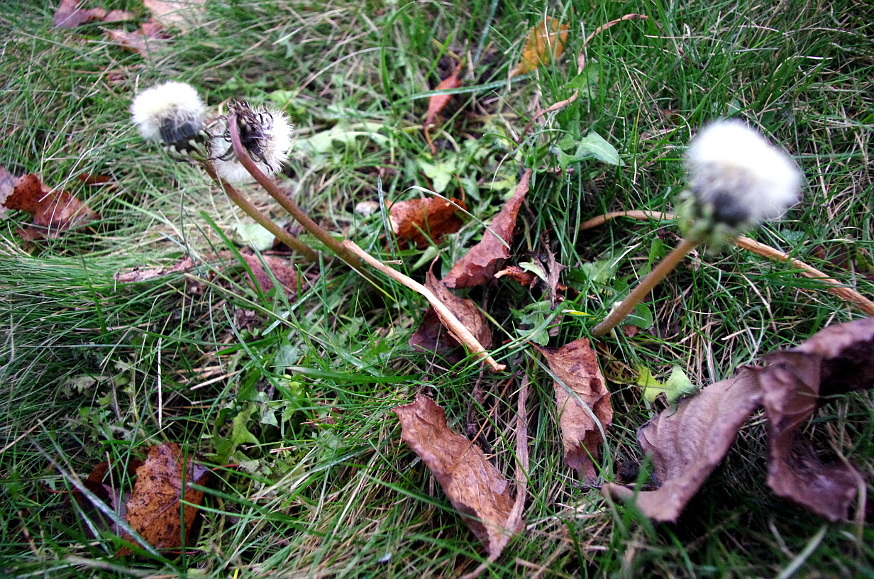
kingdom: Plantae
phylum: Tracheophyta
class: Magnoliopsida
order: Asterales
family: Asteraceae
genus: Taraxacum
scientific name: Taraxacum officinale
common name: Common dandelion
